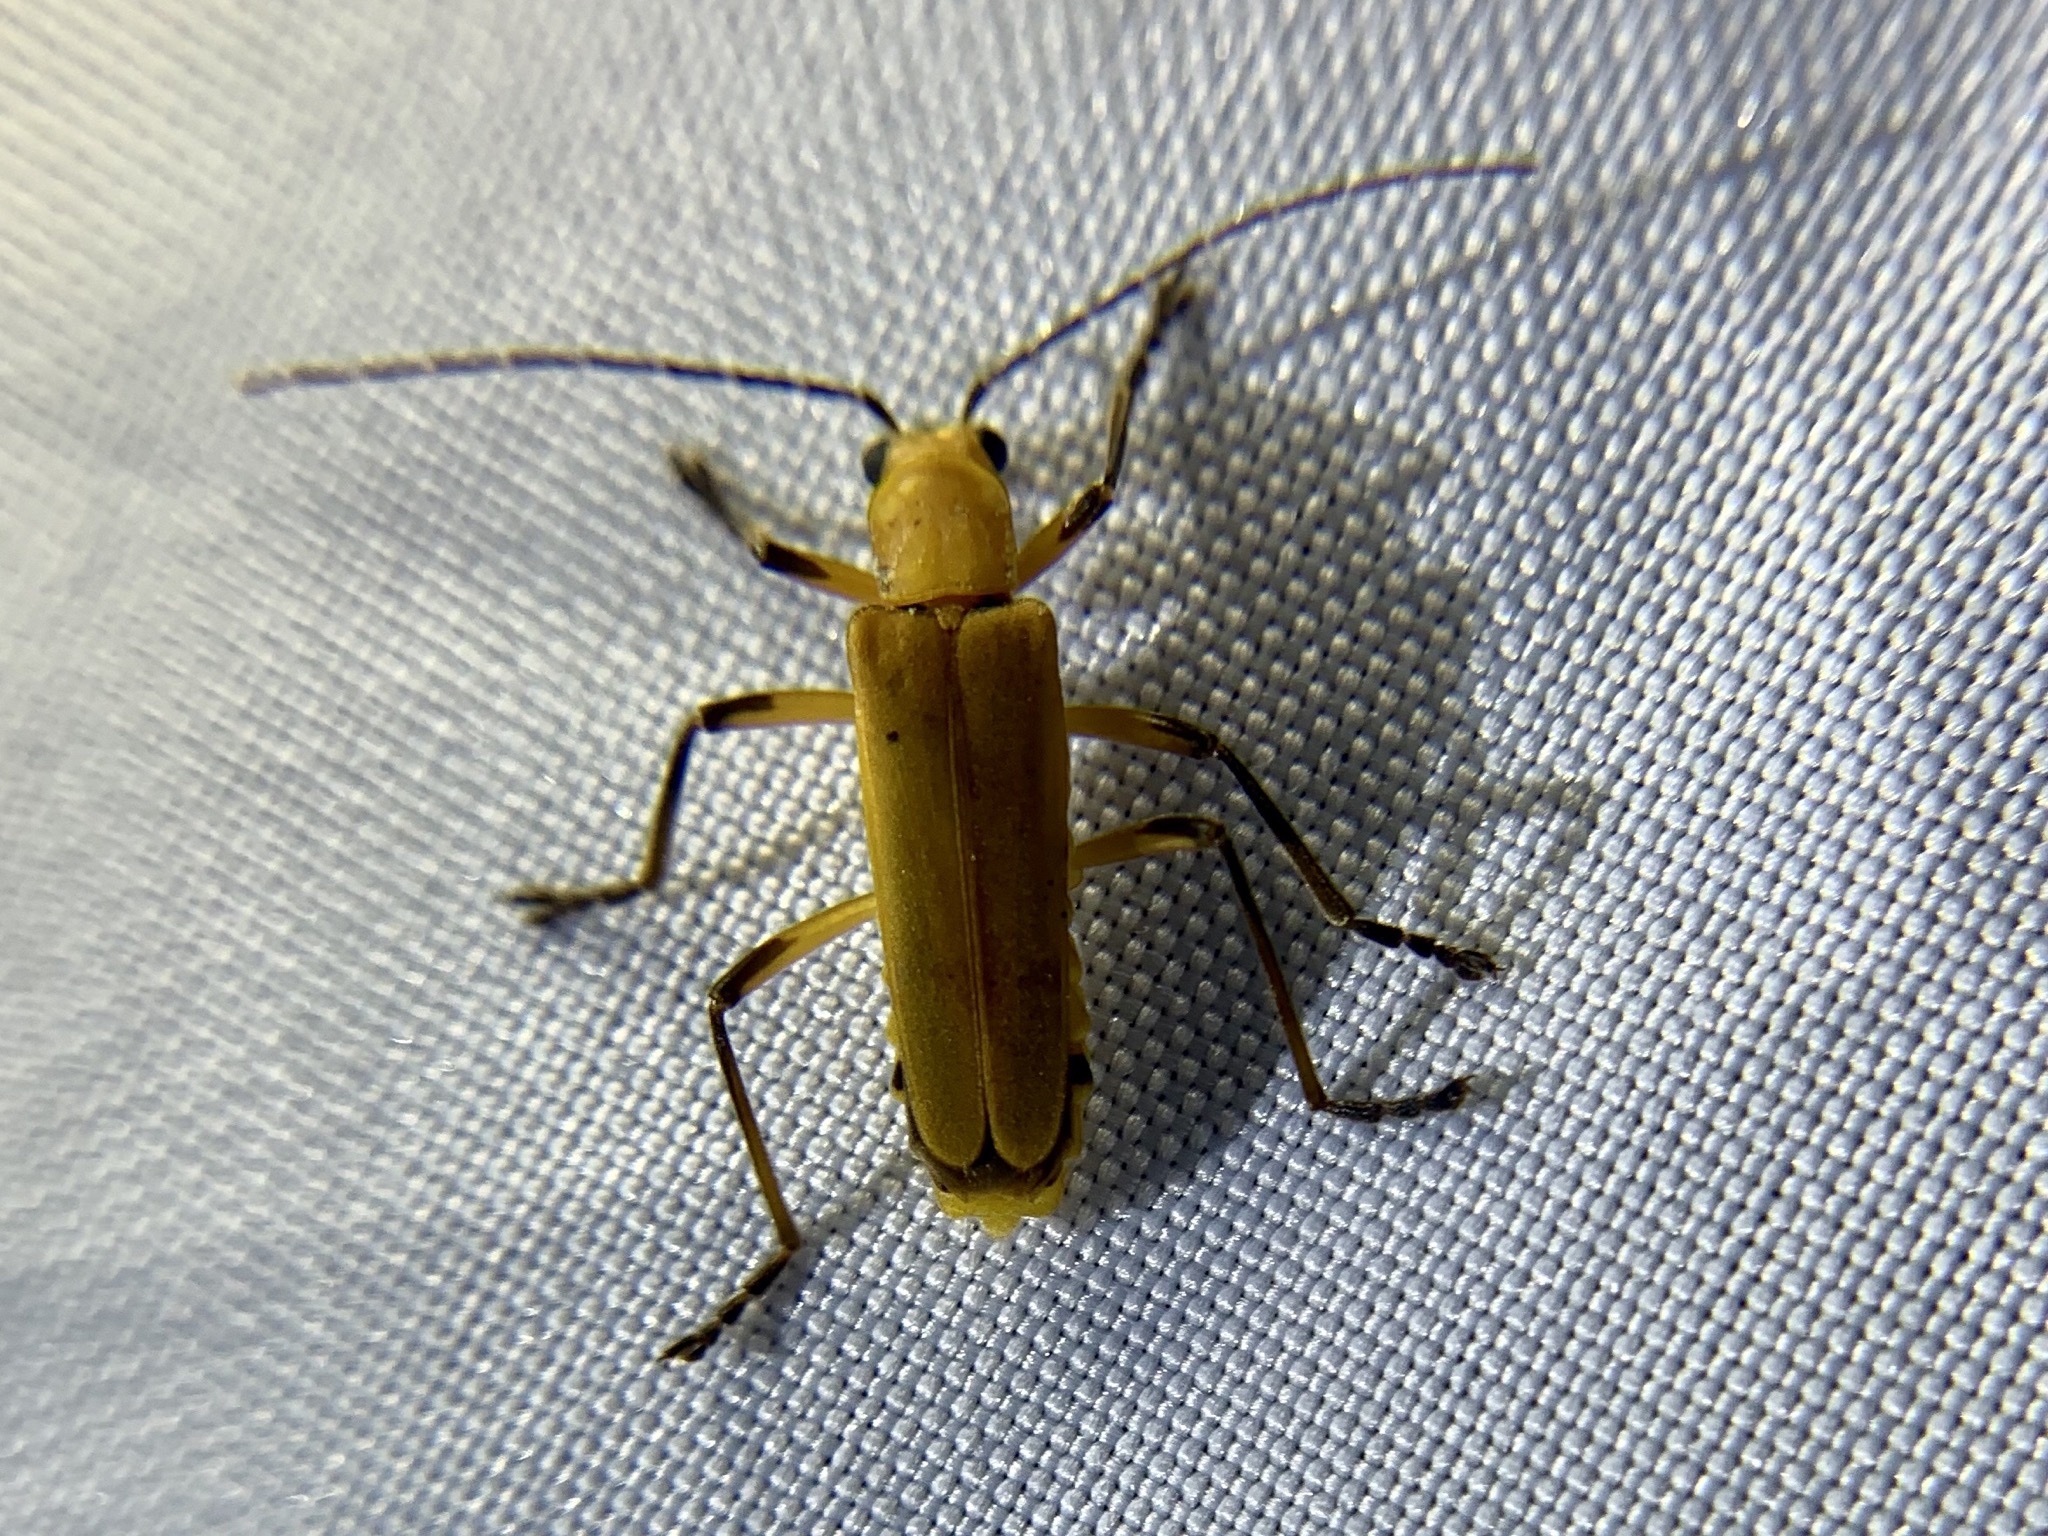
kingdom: Animalia
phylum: Arthropoda
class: Insecta
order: Coleoptera
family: Cantharidae
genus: Chauliognathus
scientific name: Chauliognathus
